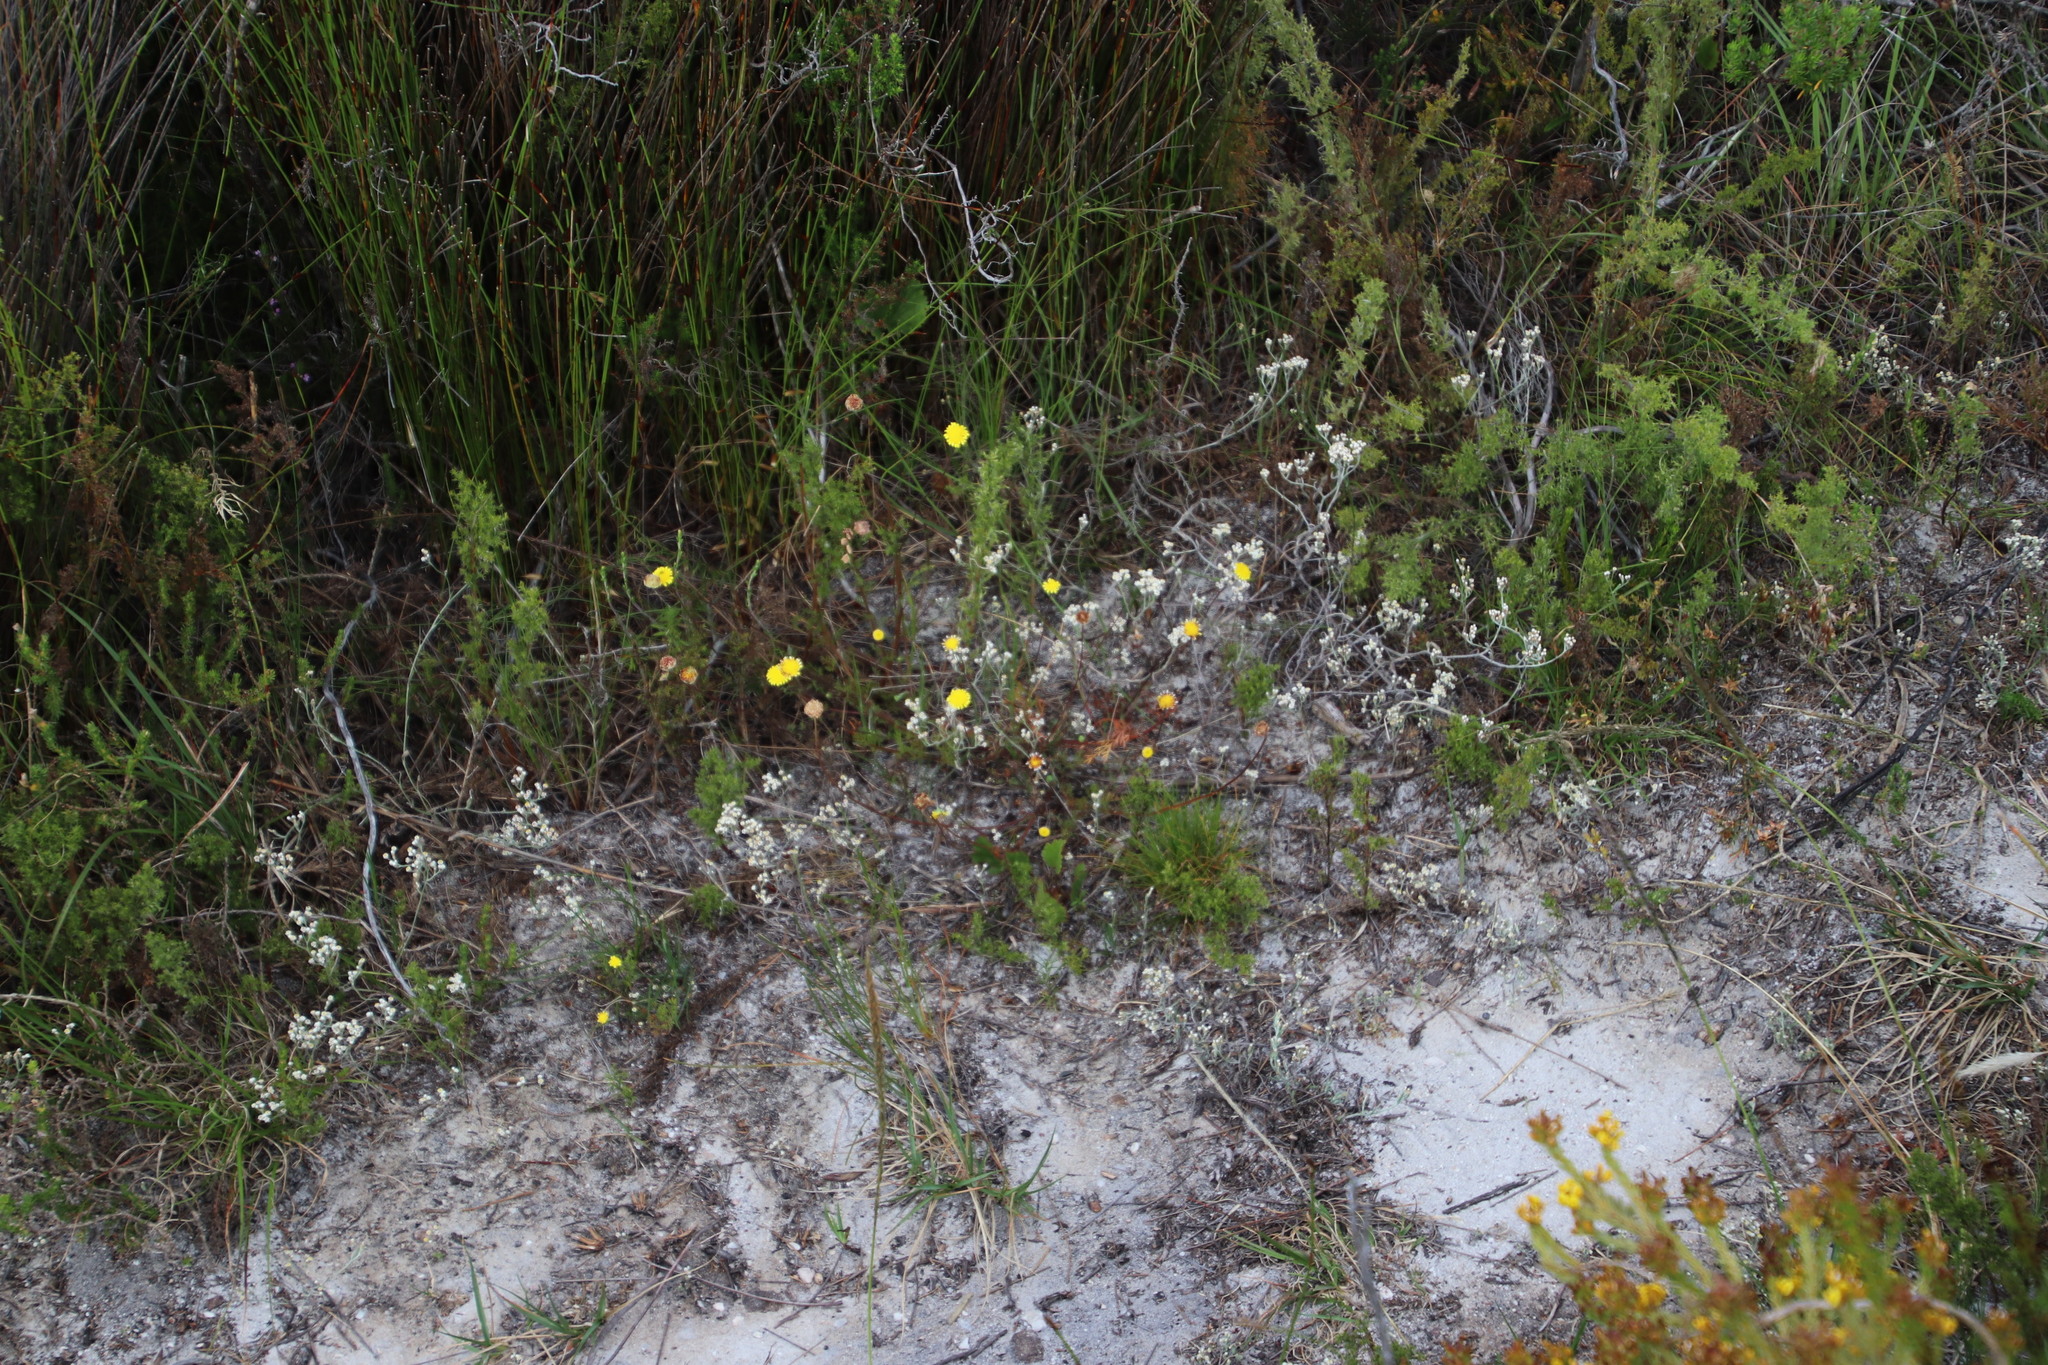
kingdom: Plantae
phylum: Tracheophyta
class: Magnoliopsida
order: Asterales
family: Asteraceae
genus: Cotula
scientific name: Cotula pruinosa
